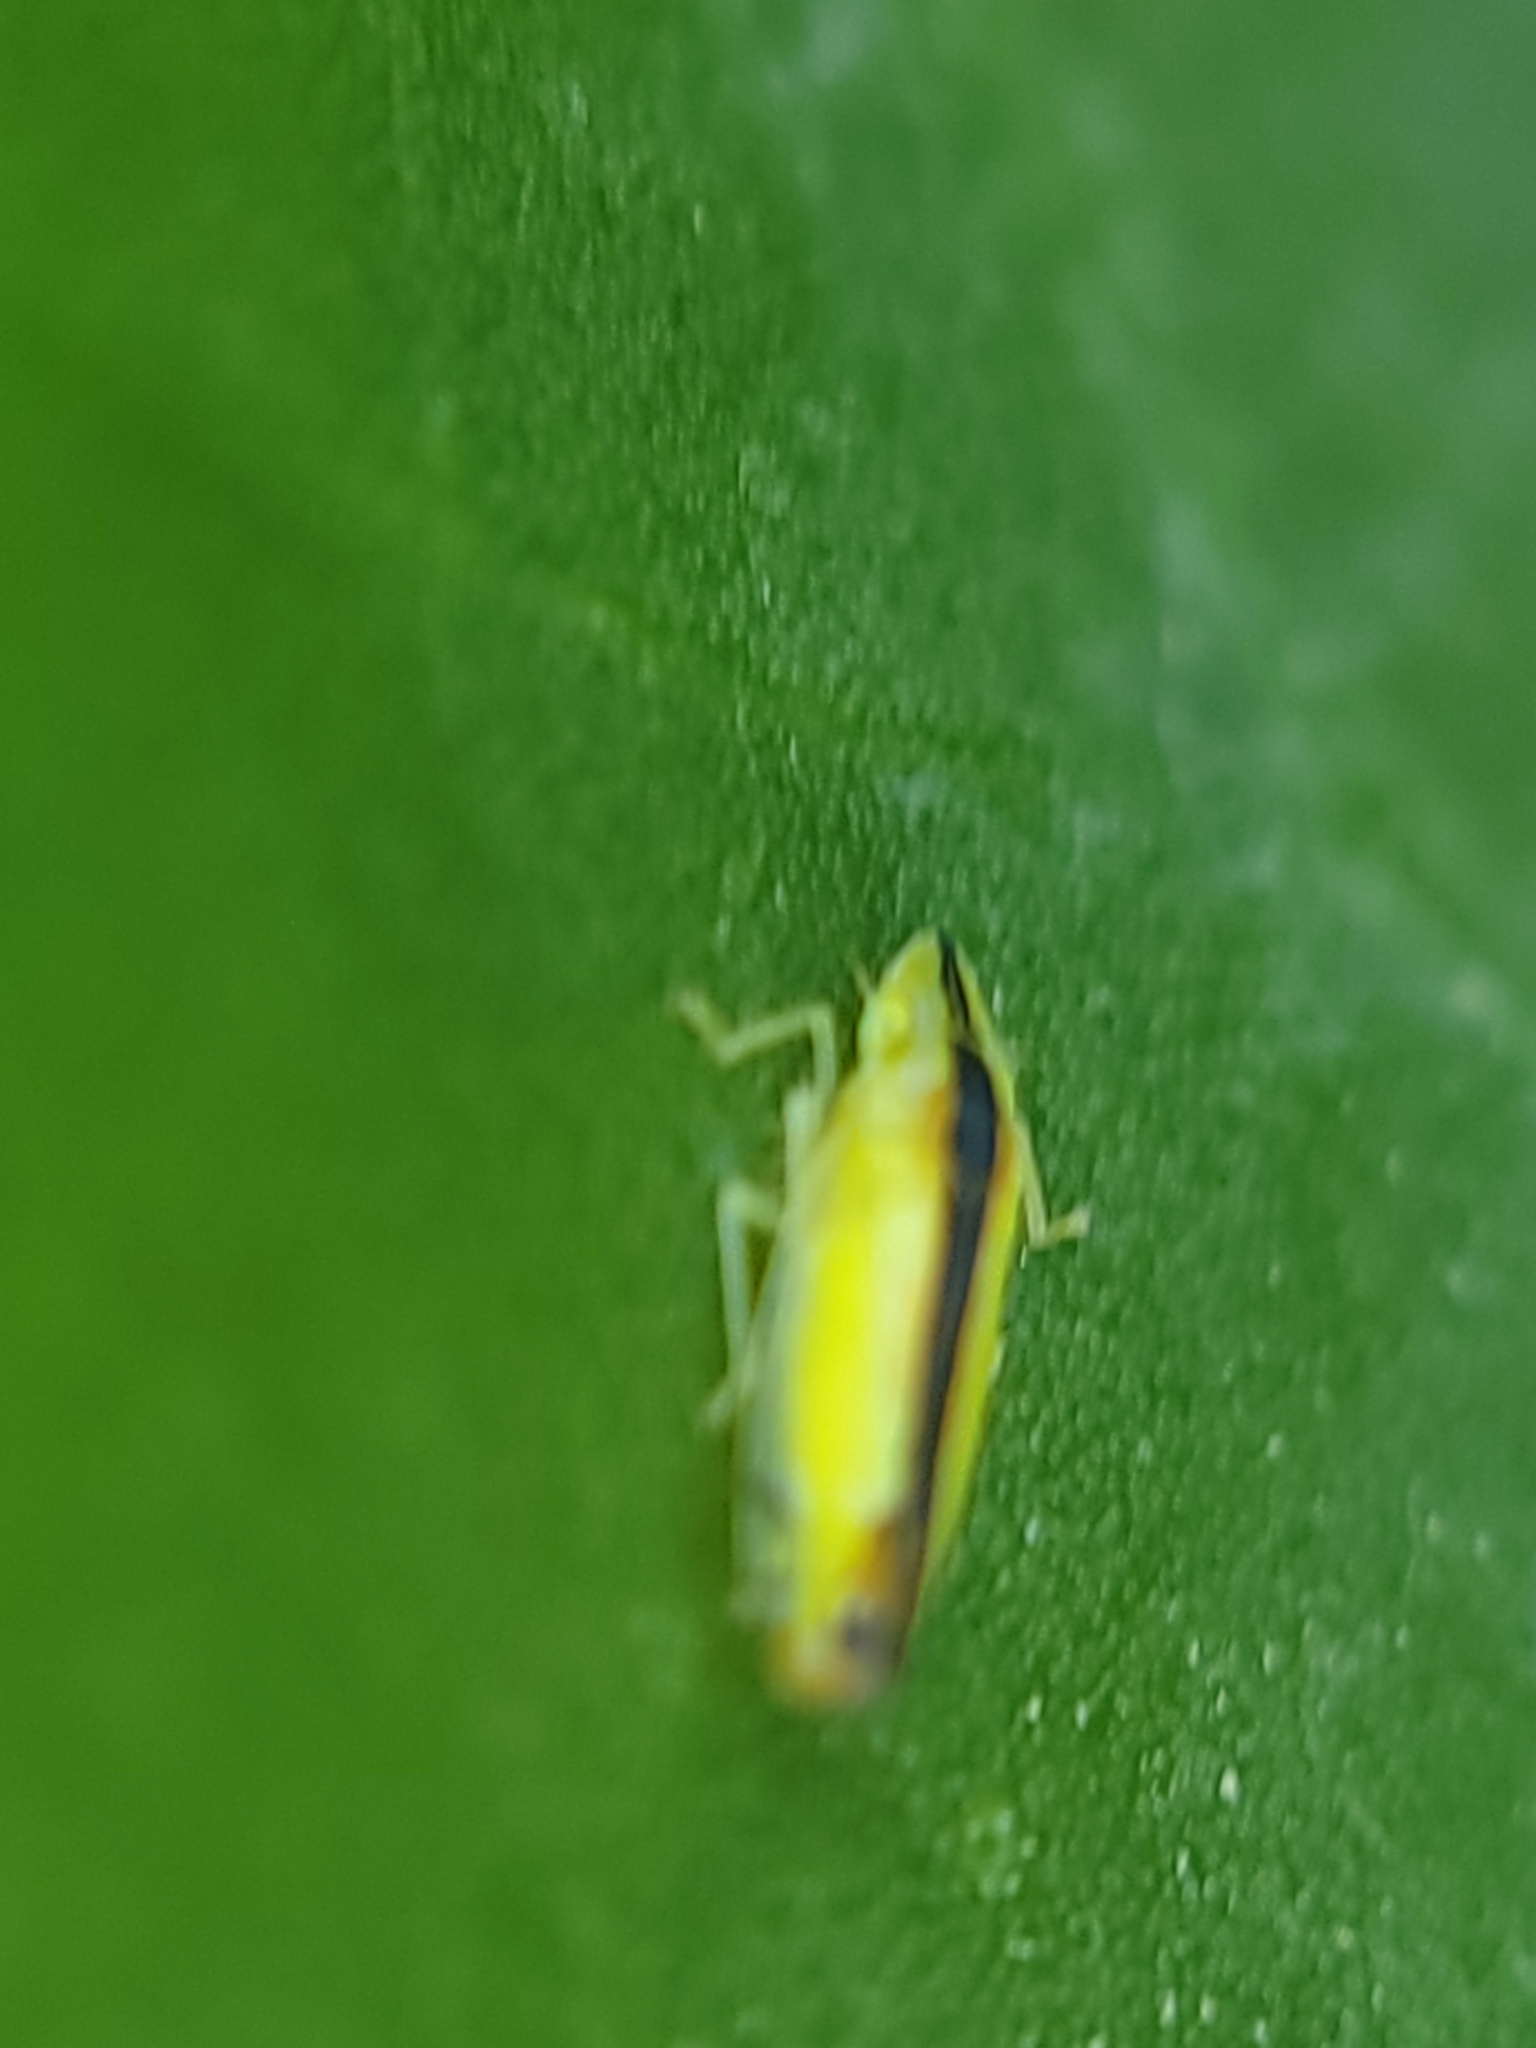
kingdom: Animalia
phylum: Arthropoda
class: Insecta
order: Hemiptera
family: Cicadellidae
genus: Sophonia
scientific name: Sophonia orientalis
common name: Two-spotted leafhopper
